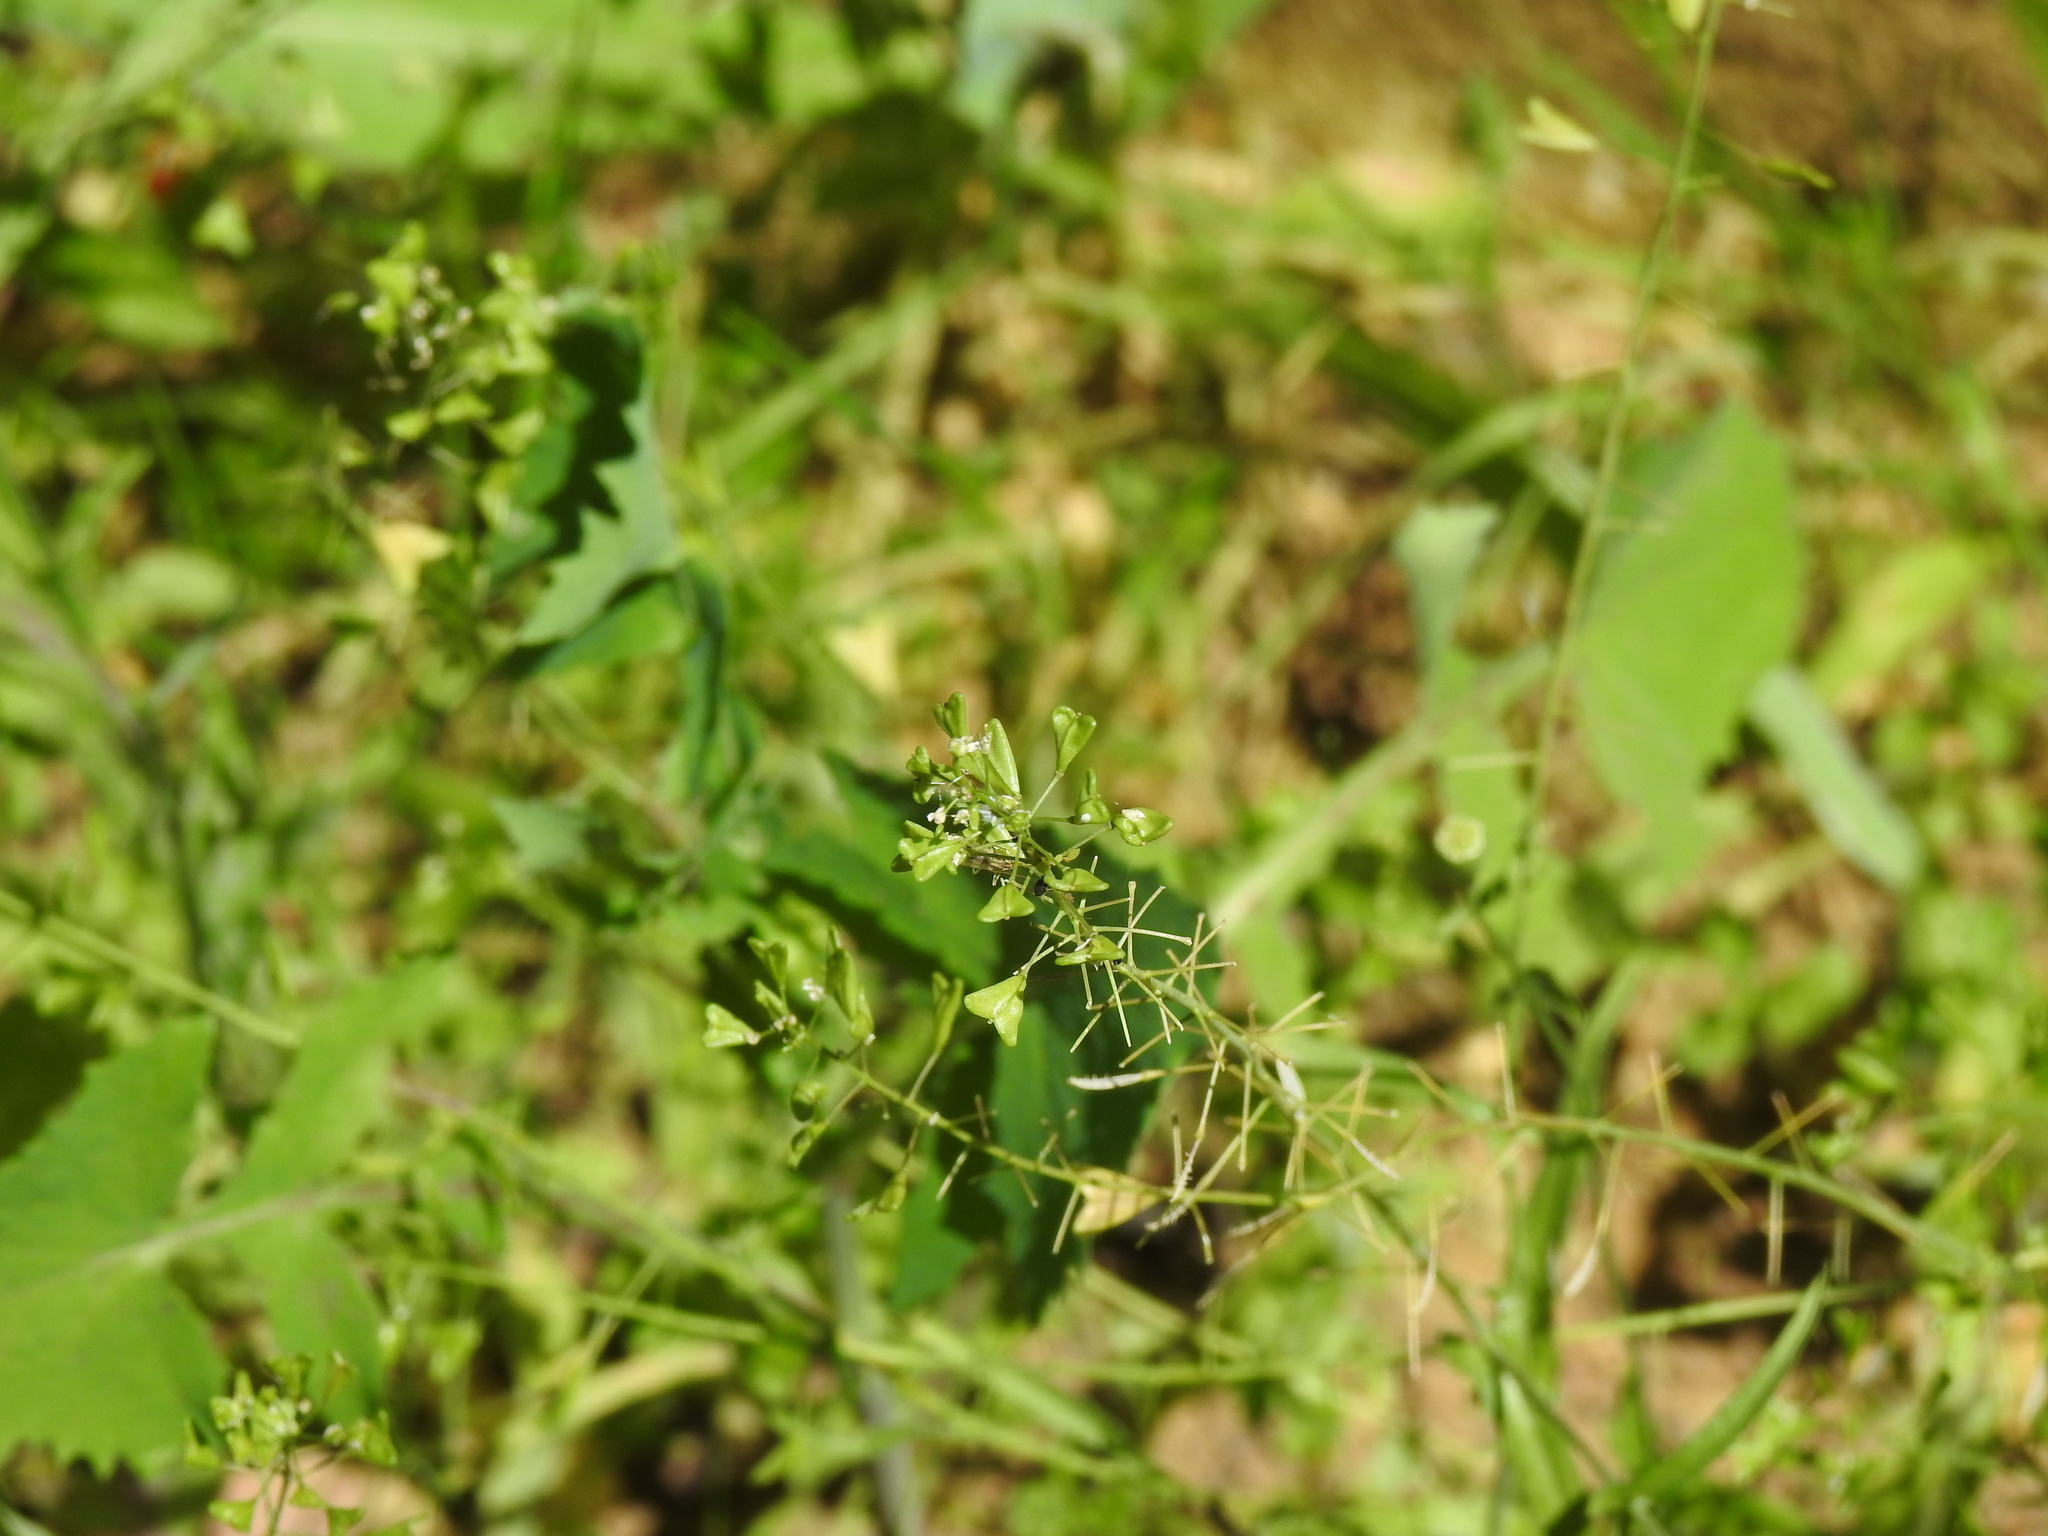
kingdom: Plantae
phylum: Tracheophyta
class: Magnoliopsida
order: Brassicales
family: Brassicaceae
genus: Capsella
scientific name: Capsella bursa-pastoris
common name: Shepherd's purse
